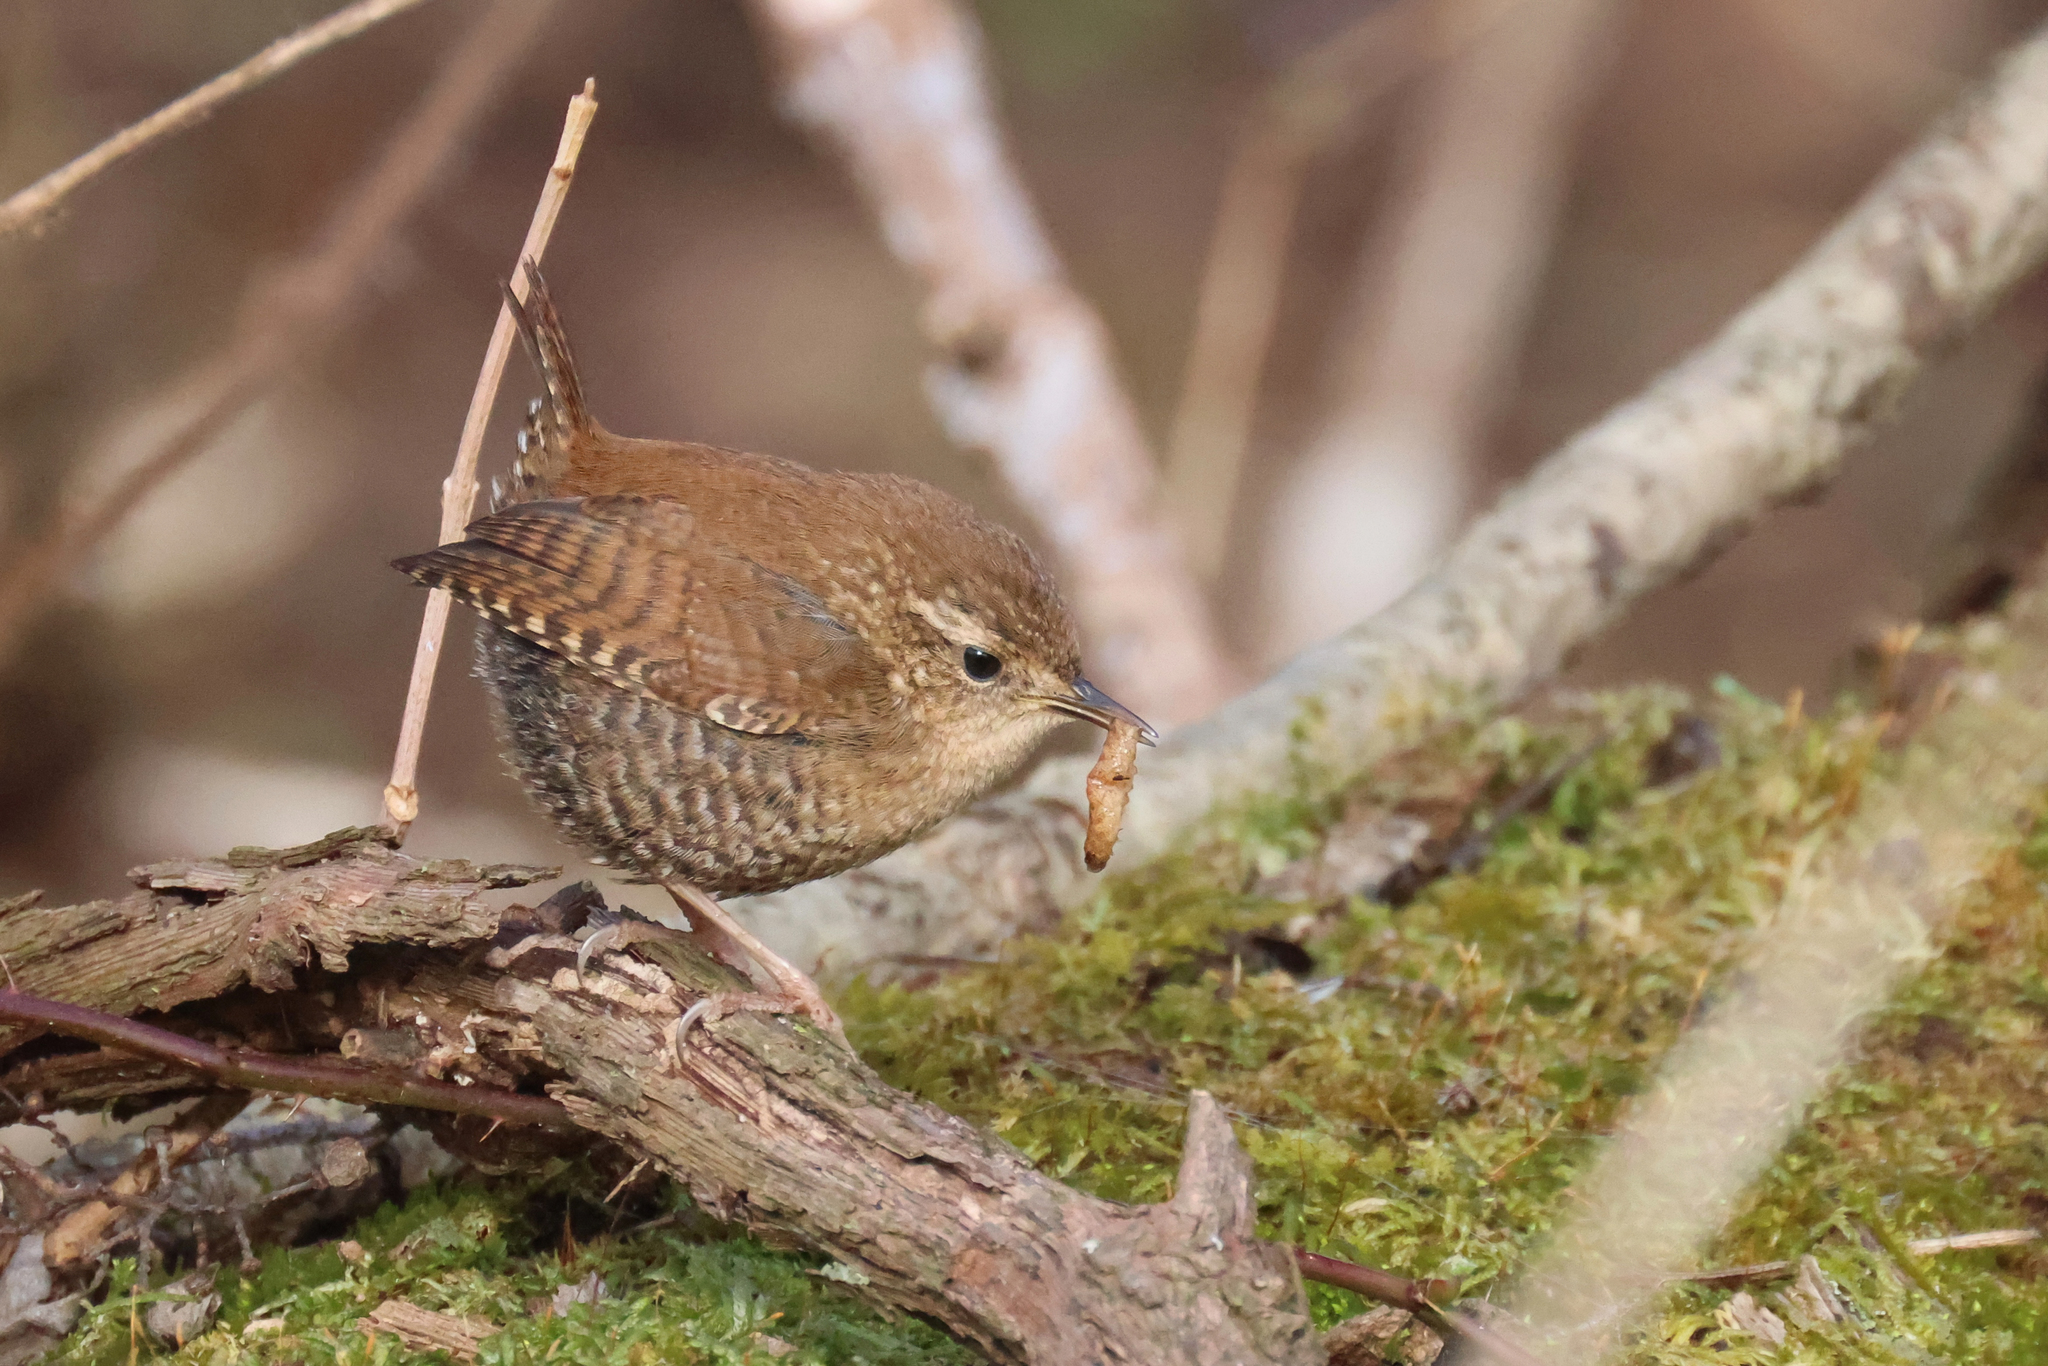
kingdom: Animalia
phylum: Chordata
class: Aves
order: Passeriformes
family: Troglodytidae
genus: Troglodytes
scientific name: Troglodytes hiemalis
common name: Winter wren
